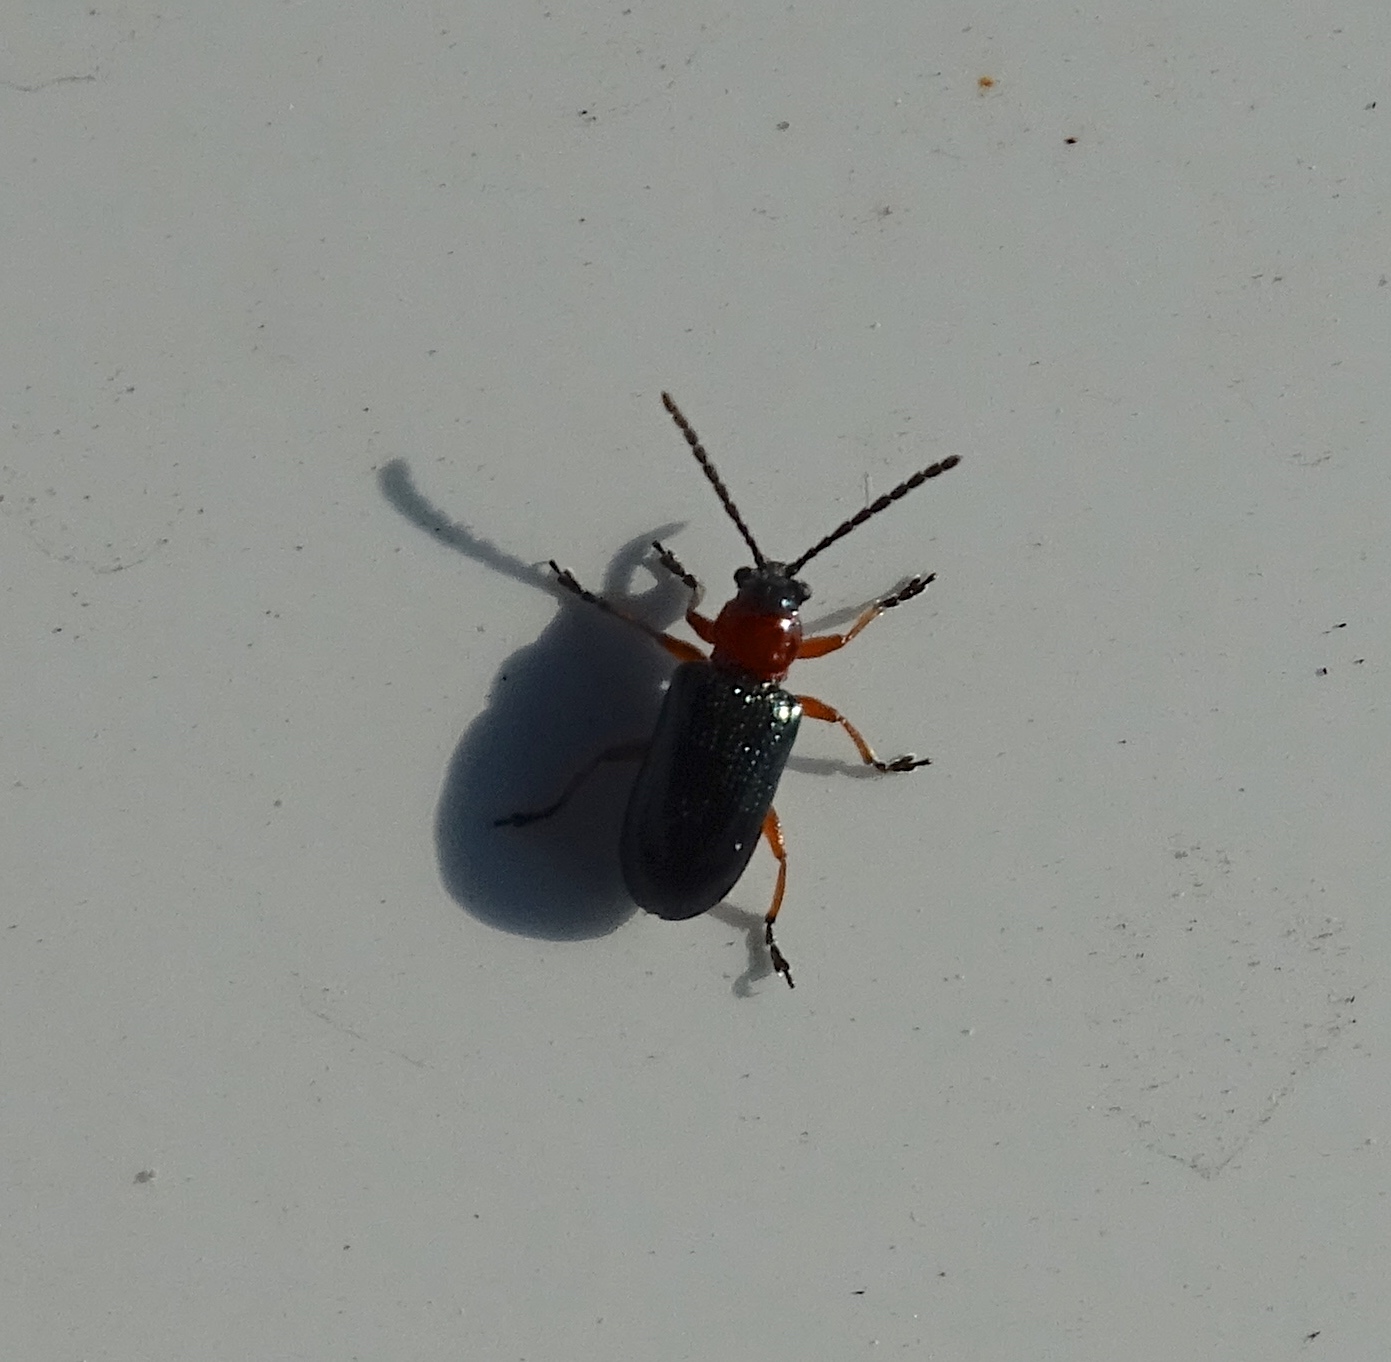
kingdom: Animalia
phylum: Arthropoda
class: Insecta
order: Coleoptera
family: Chrysomelidae
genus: Oulema
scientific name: Oulema melanopus
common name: Cereal leaf beetle
